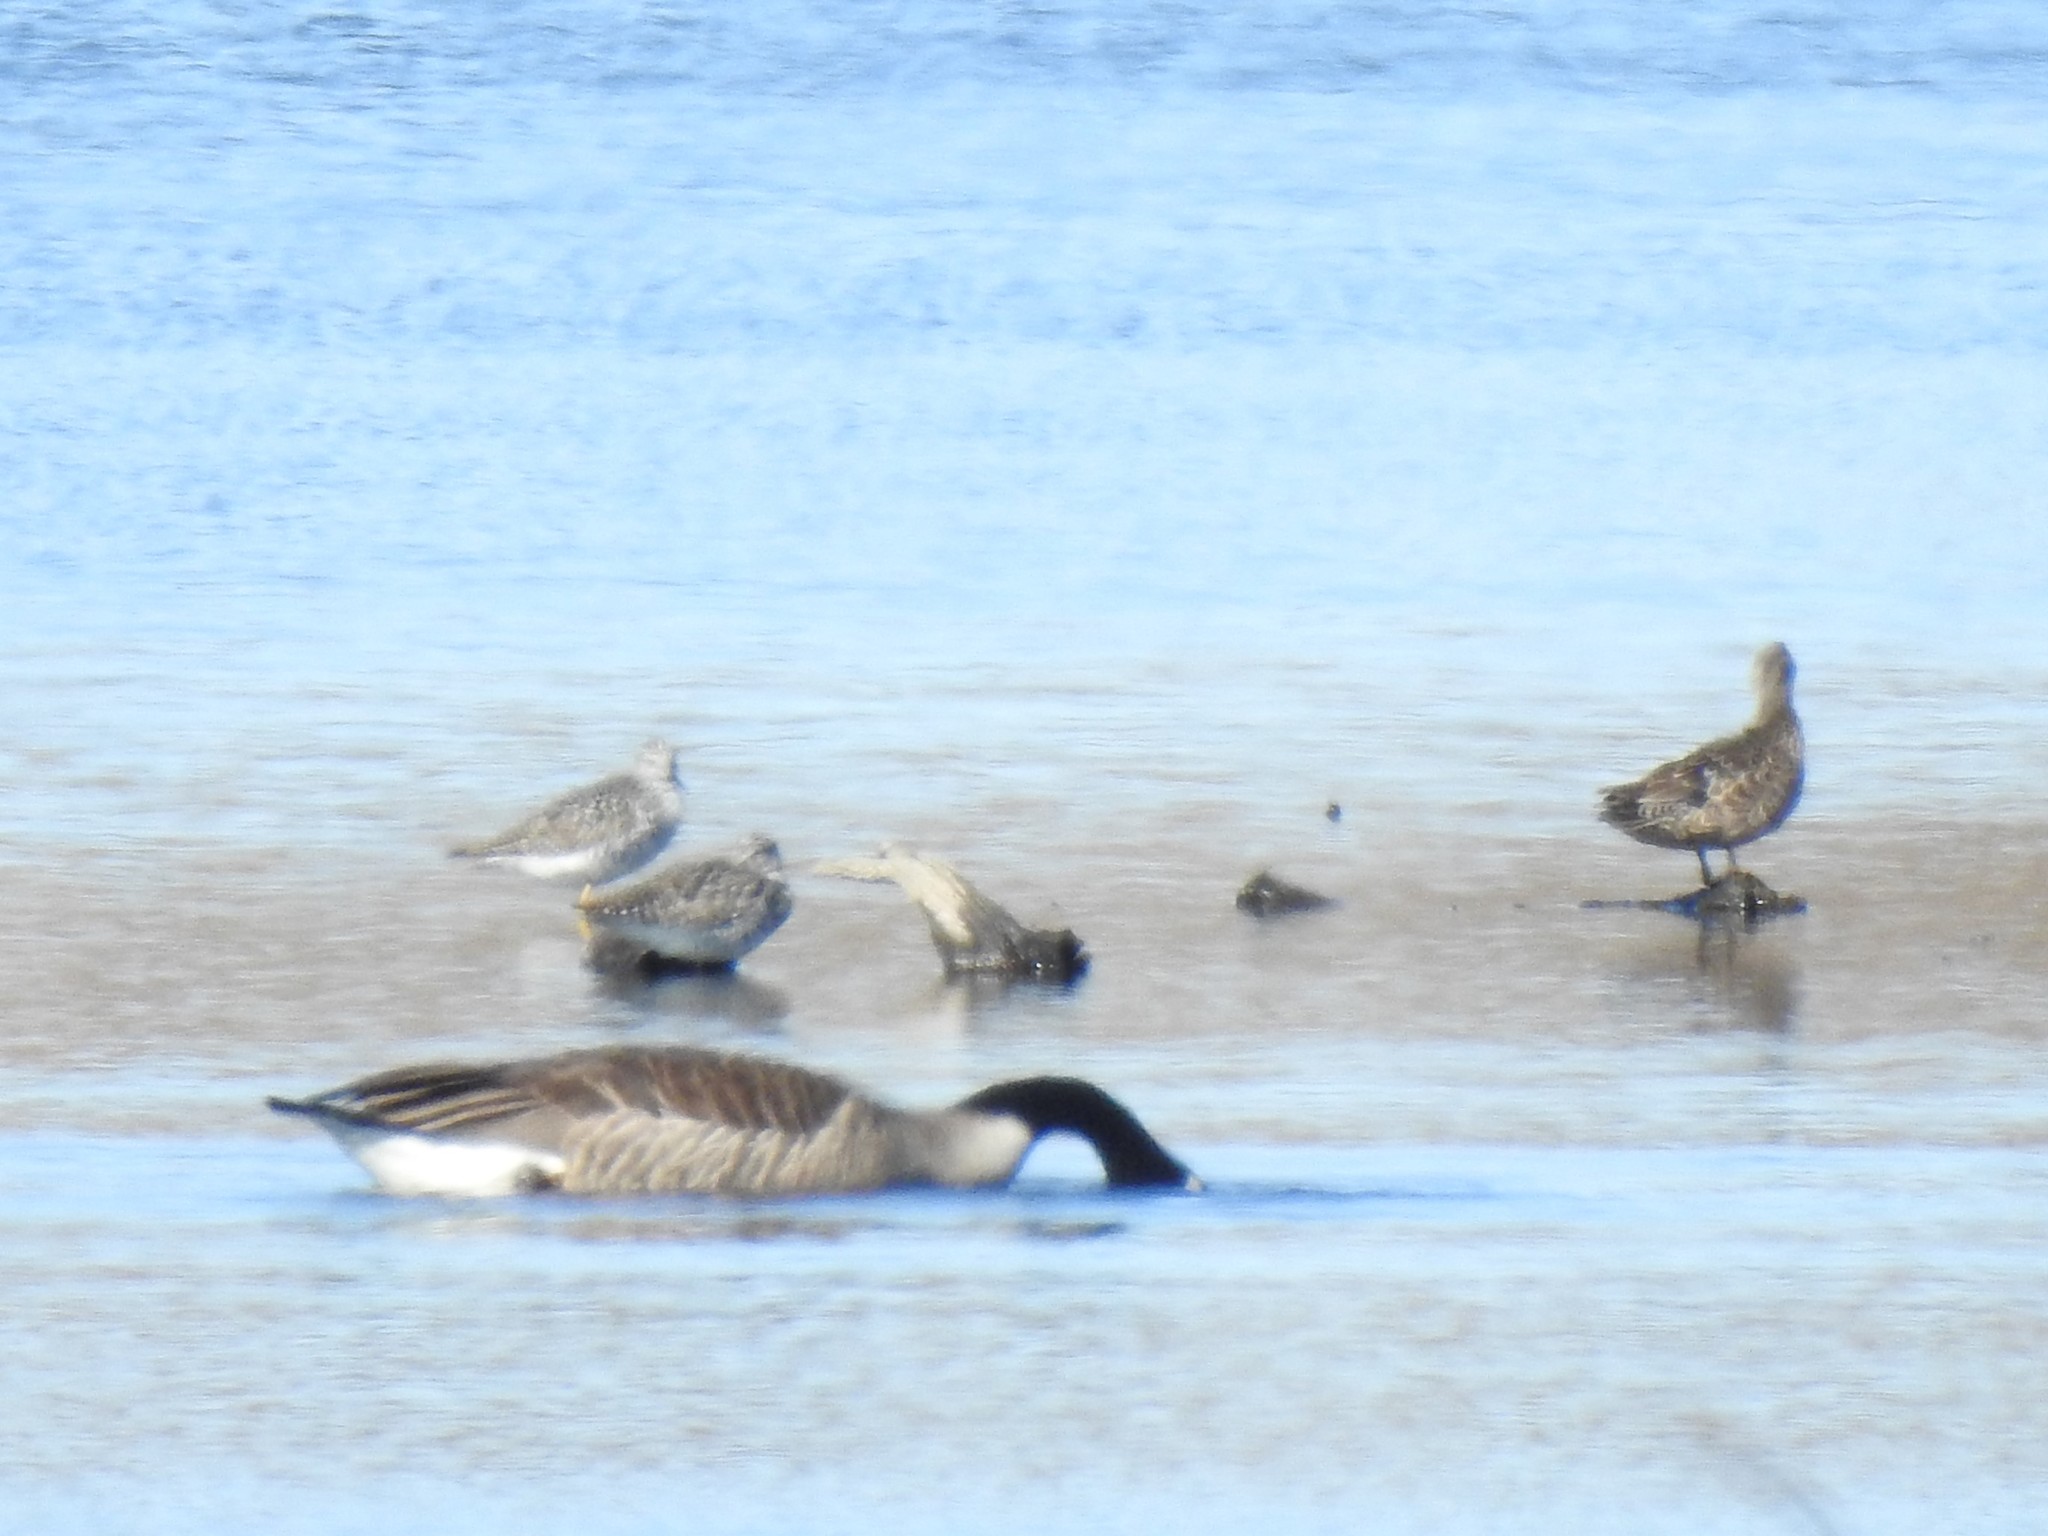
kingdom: Animalia
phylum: Chordata
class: Aves
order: Charadriiformes
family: Scolopacidae
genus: Tringa
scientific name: Tringa melanoleuca
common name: Greater yellowlegs
